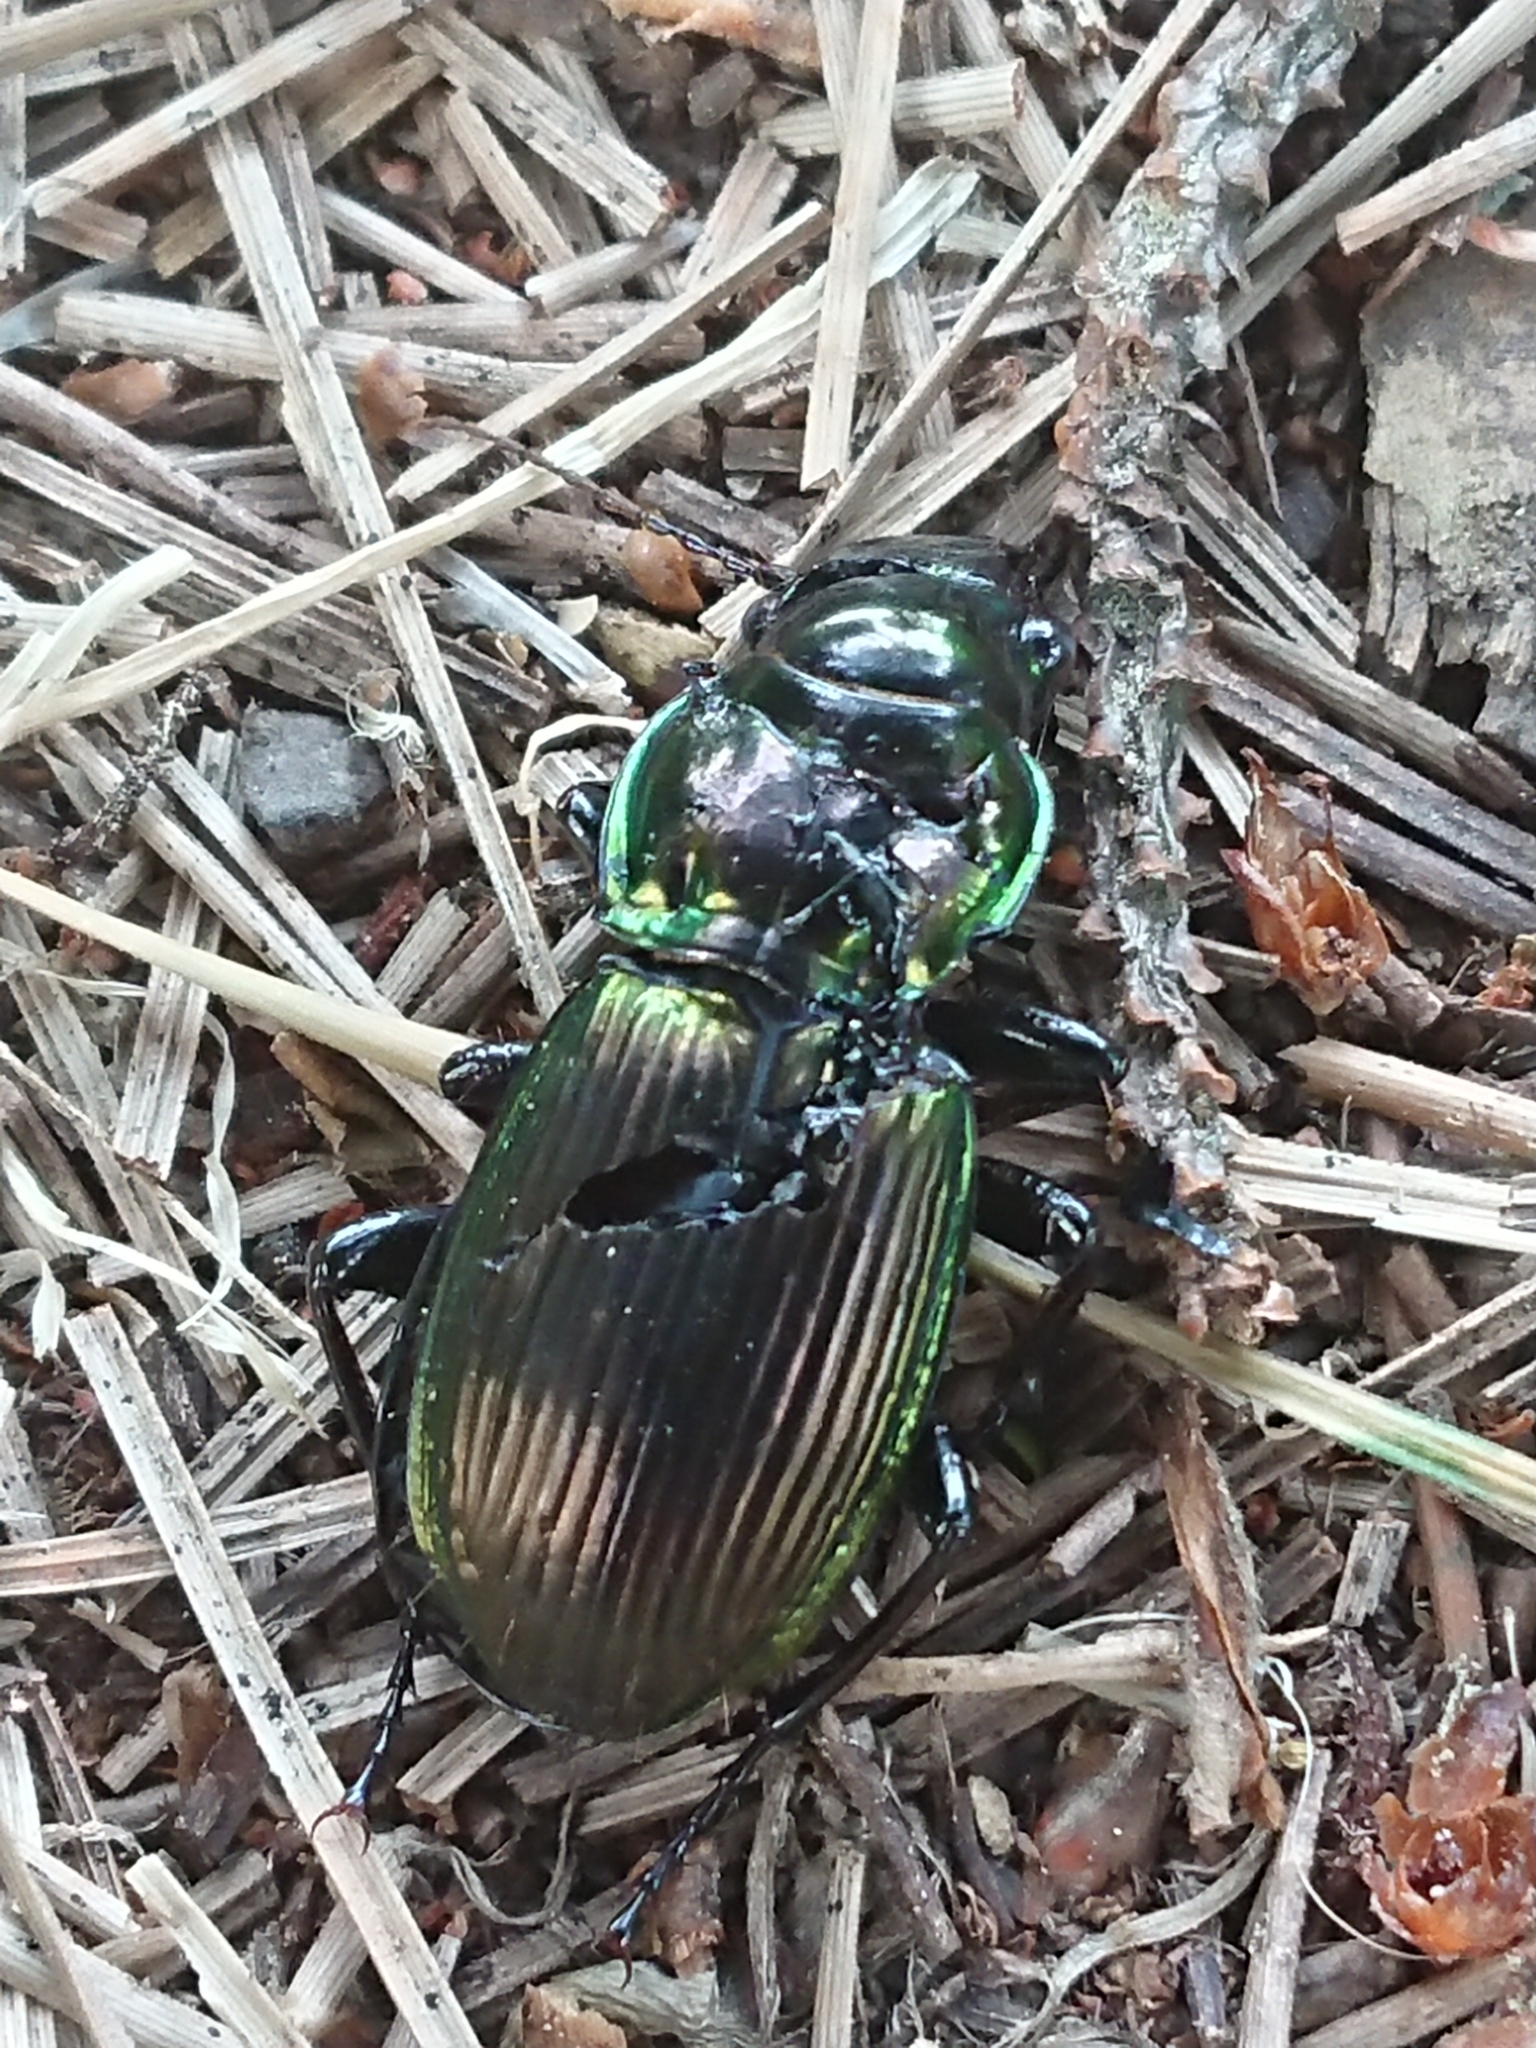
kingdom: Animalia
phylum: Arthropoda
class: Insecta
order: Coleoptera
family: Carabidae
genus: Megadromus
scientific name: Megadromus antarcticus
